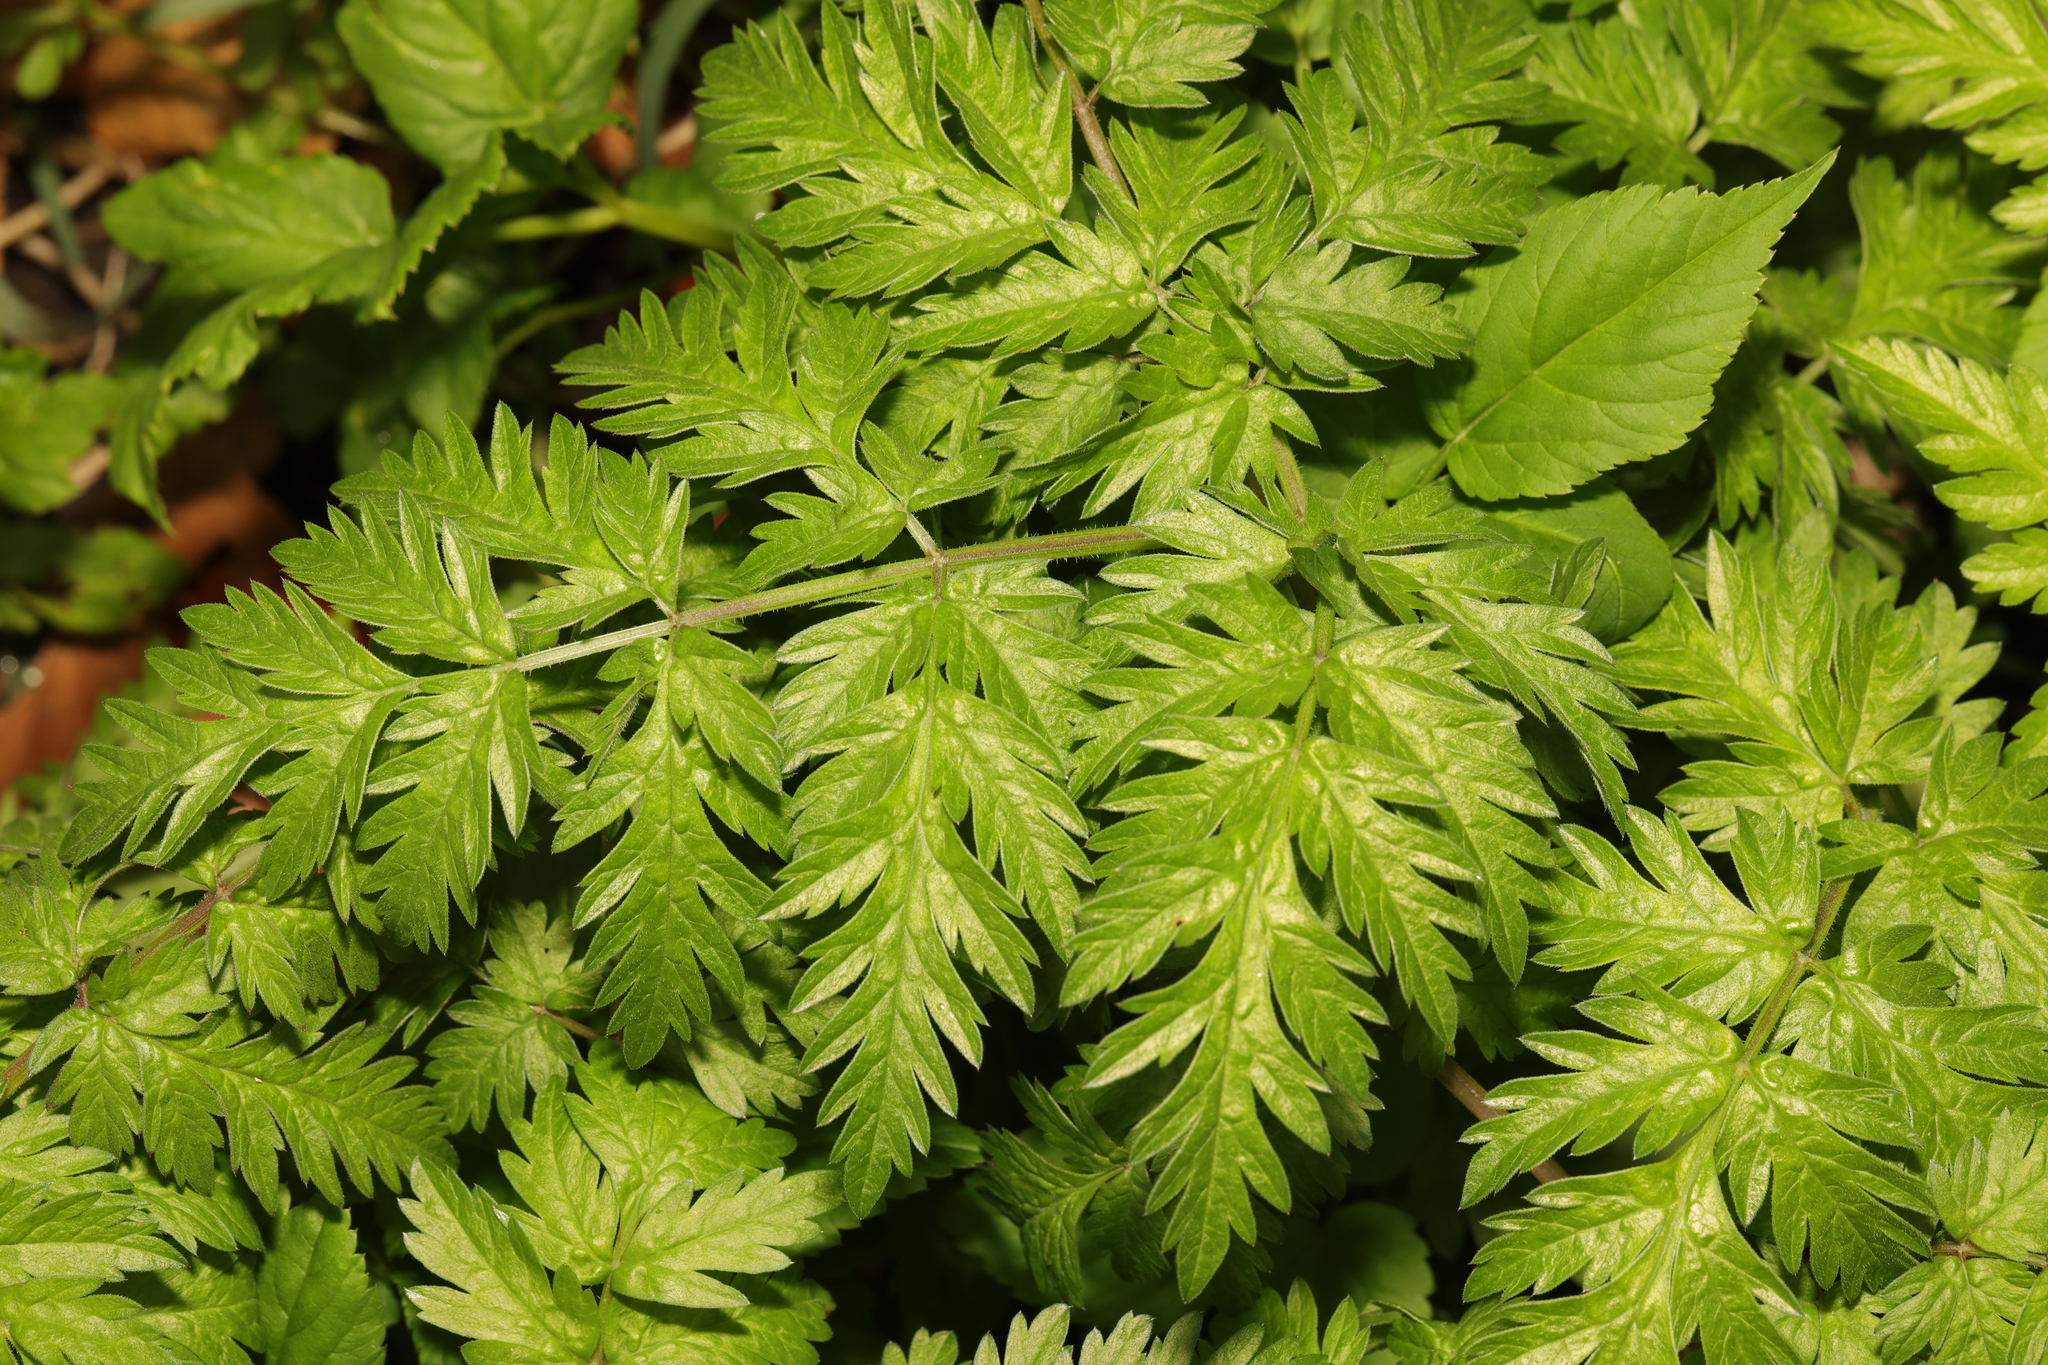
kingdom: Plantae
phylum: Tracheophyta
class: Magnoliopsida
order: Apiales
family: Apiaceae
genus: Anthriscus
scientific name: Anthriscus sylvestris
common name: Cow parsley
